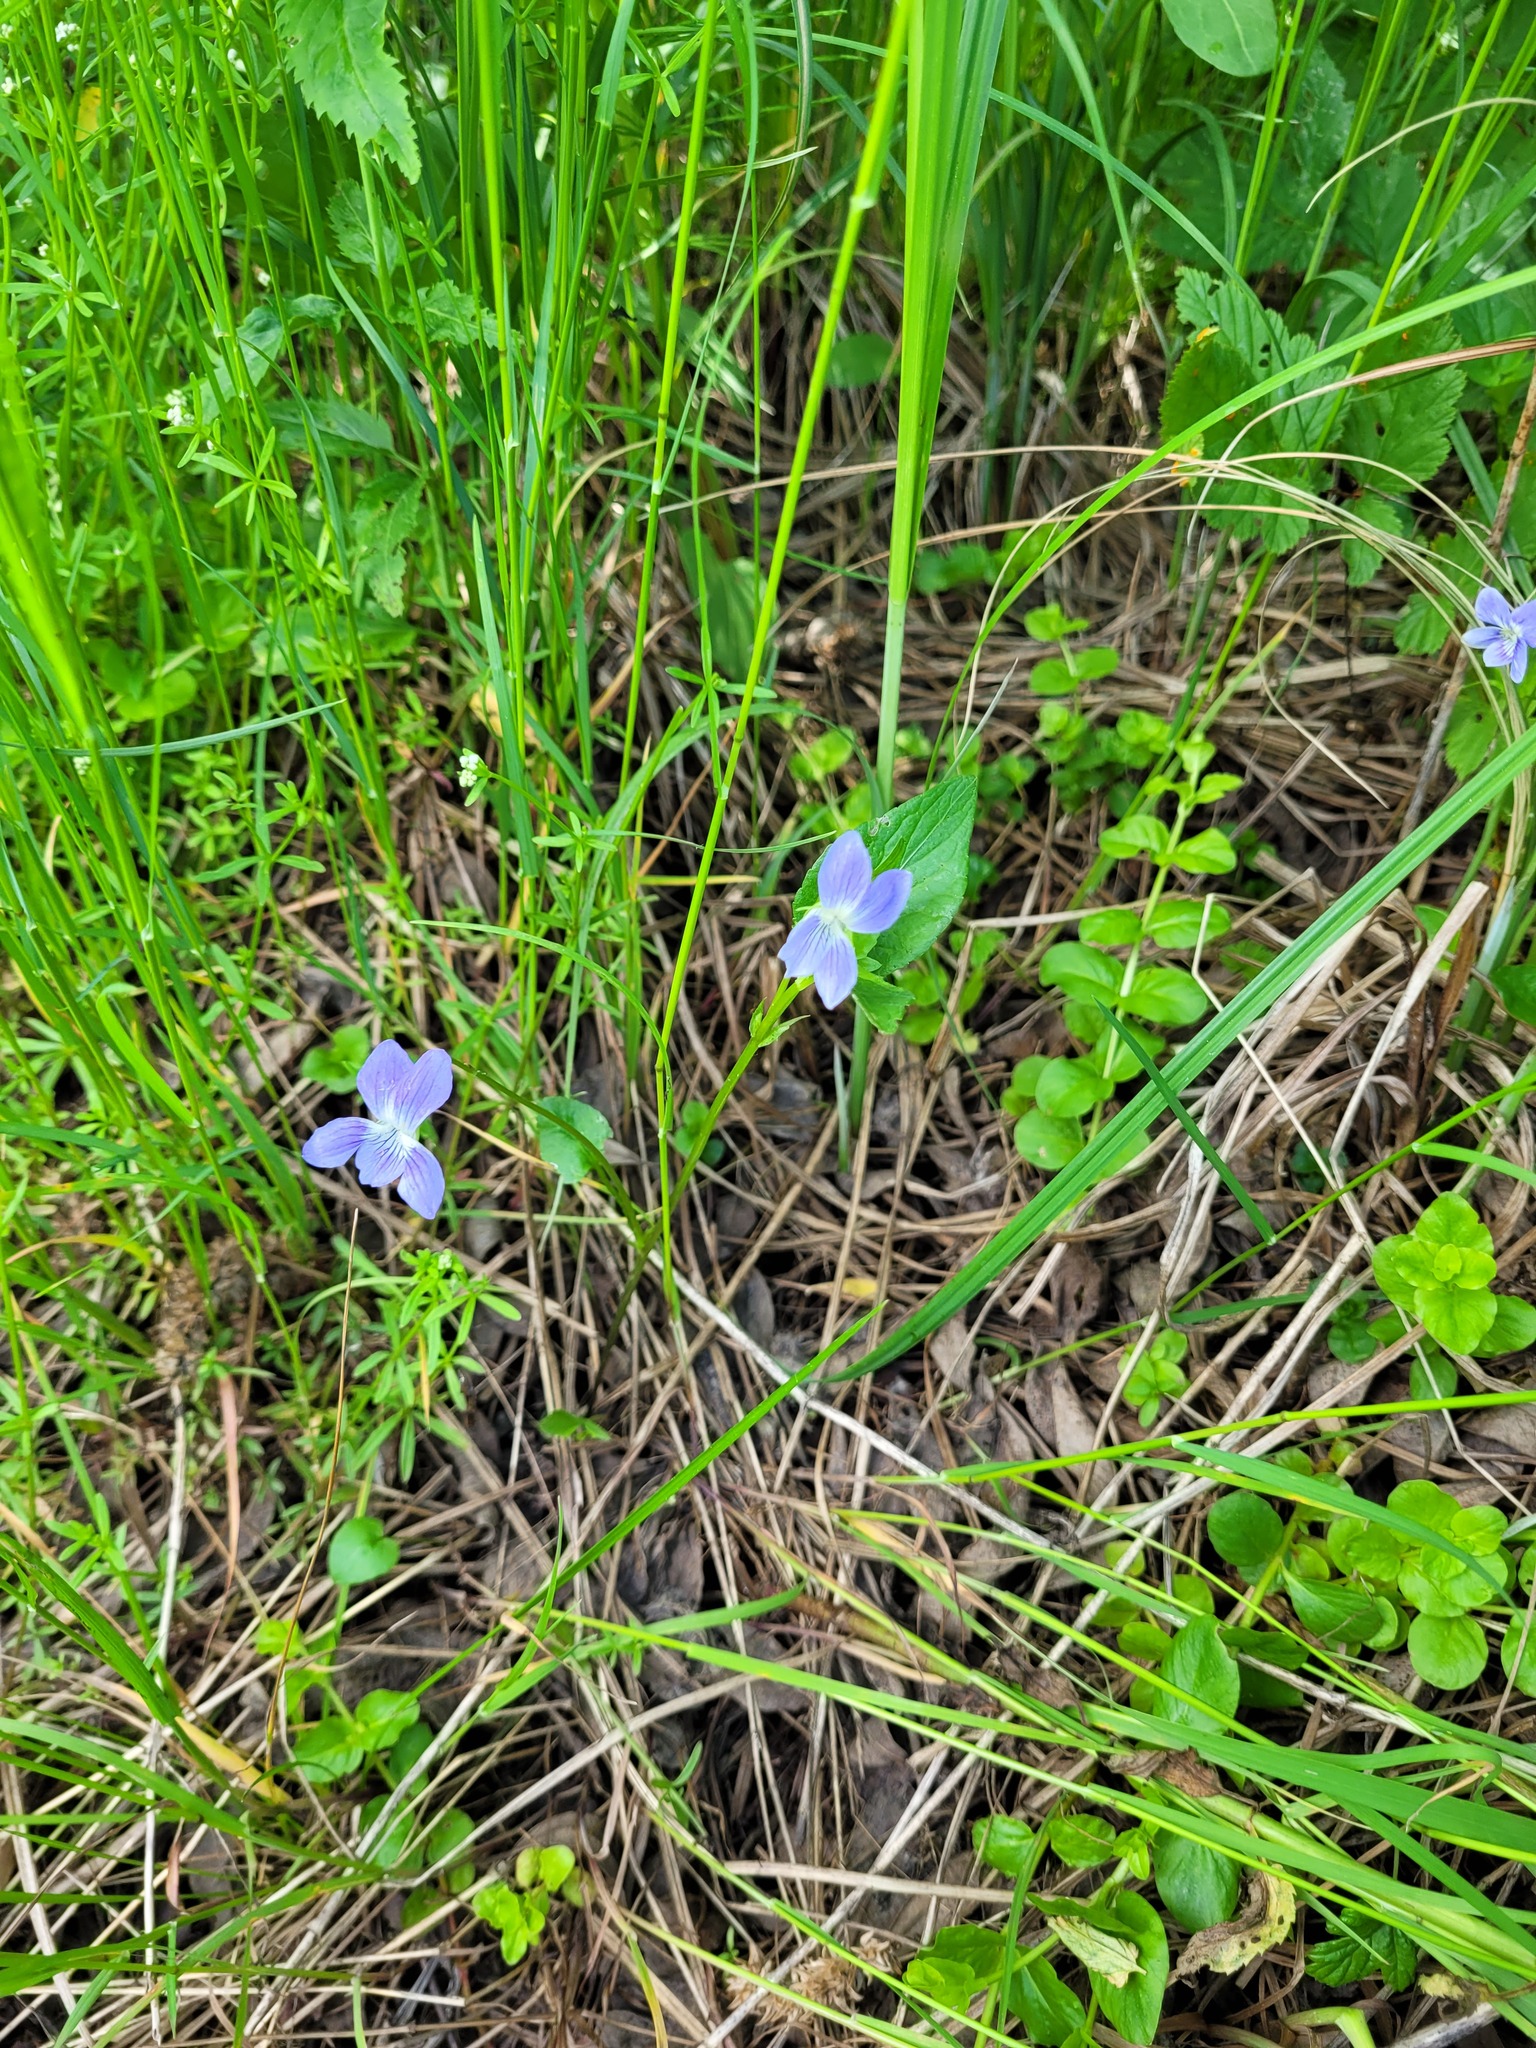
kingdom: Plantae
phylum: Tracheophyta
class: Magnoliopsida
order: Malpighiales
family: Violaceae
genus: Viola
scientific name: Viola
